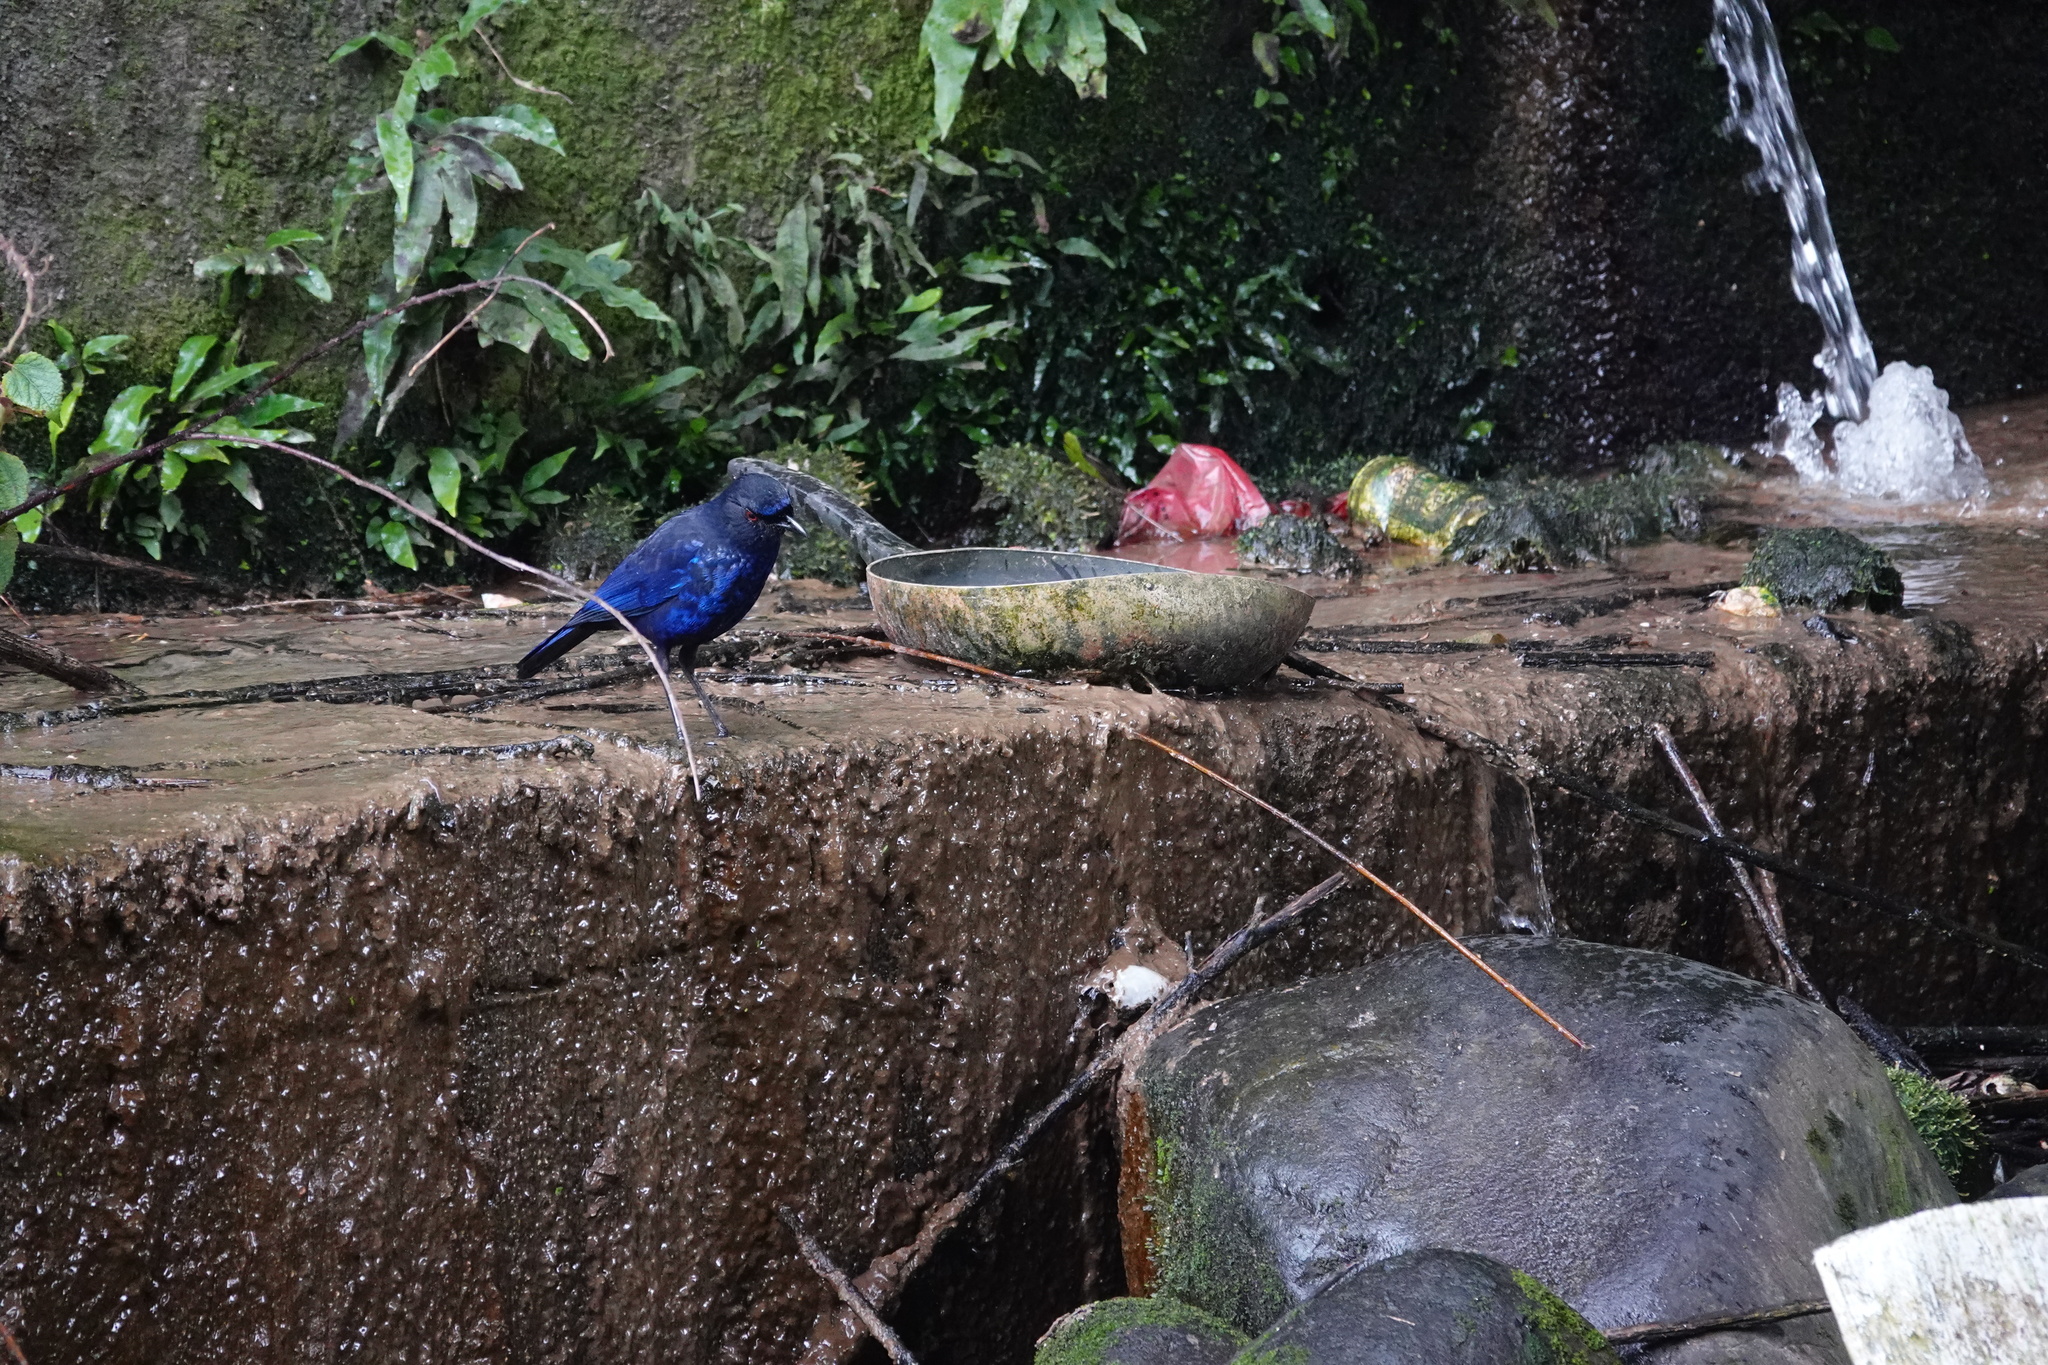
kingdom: Animalia
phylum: Chordata
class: Aves
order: Passeriformes
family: Muscicapidae
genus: Myophonus
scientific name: Myophonus insularis
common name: Taiwan whistling-thrush
